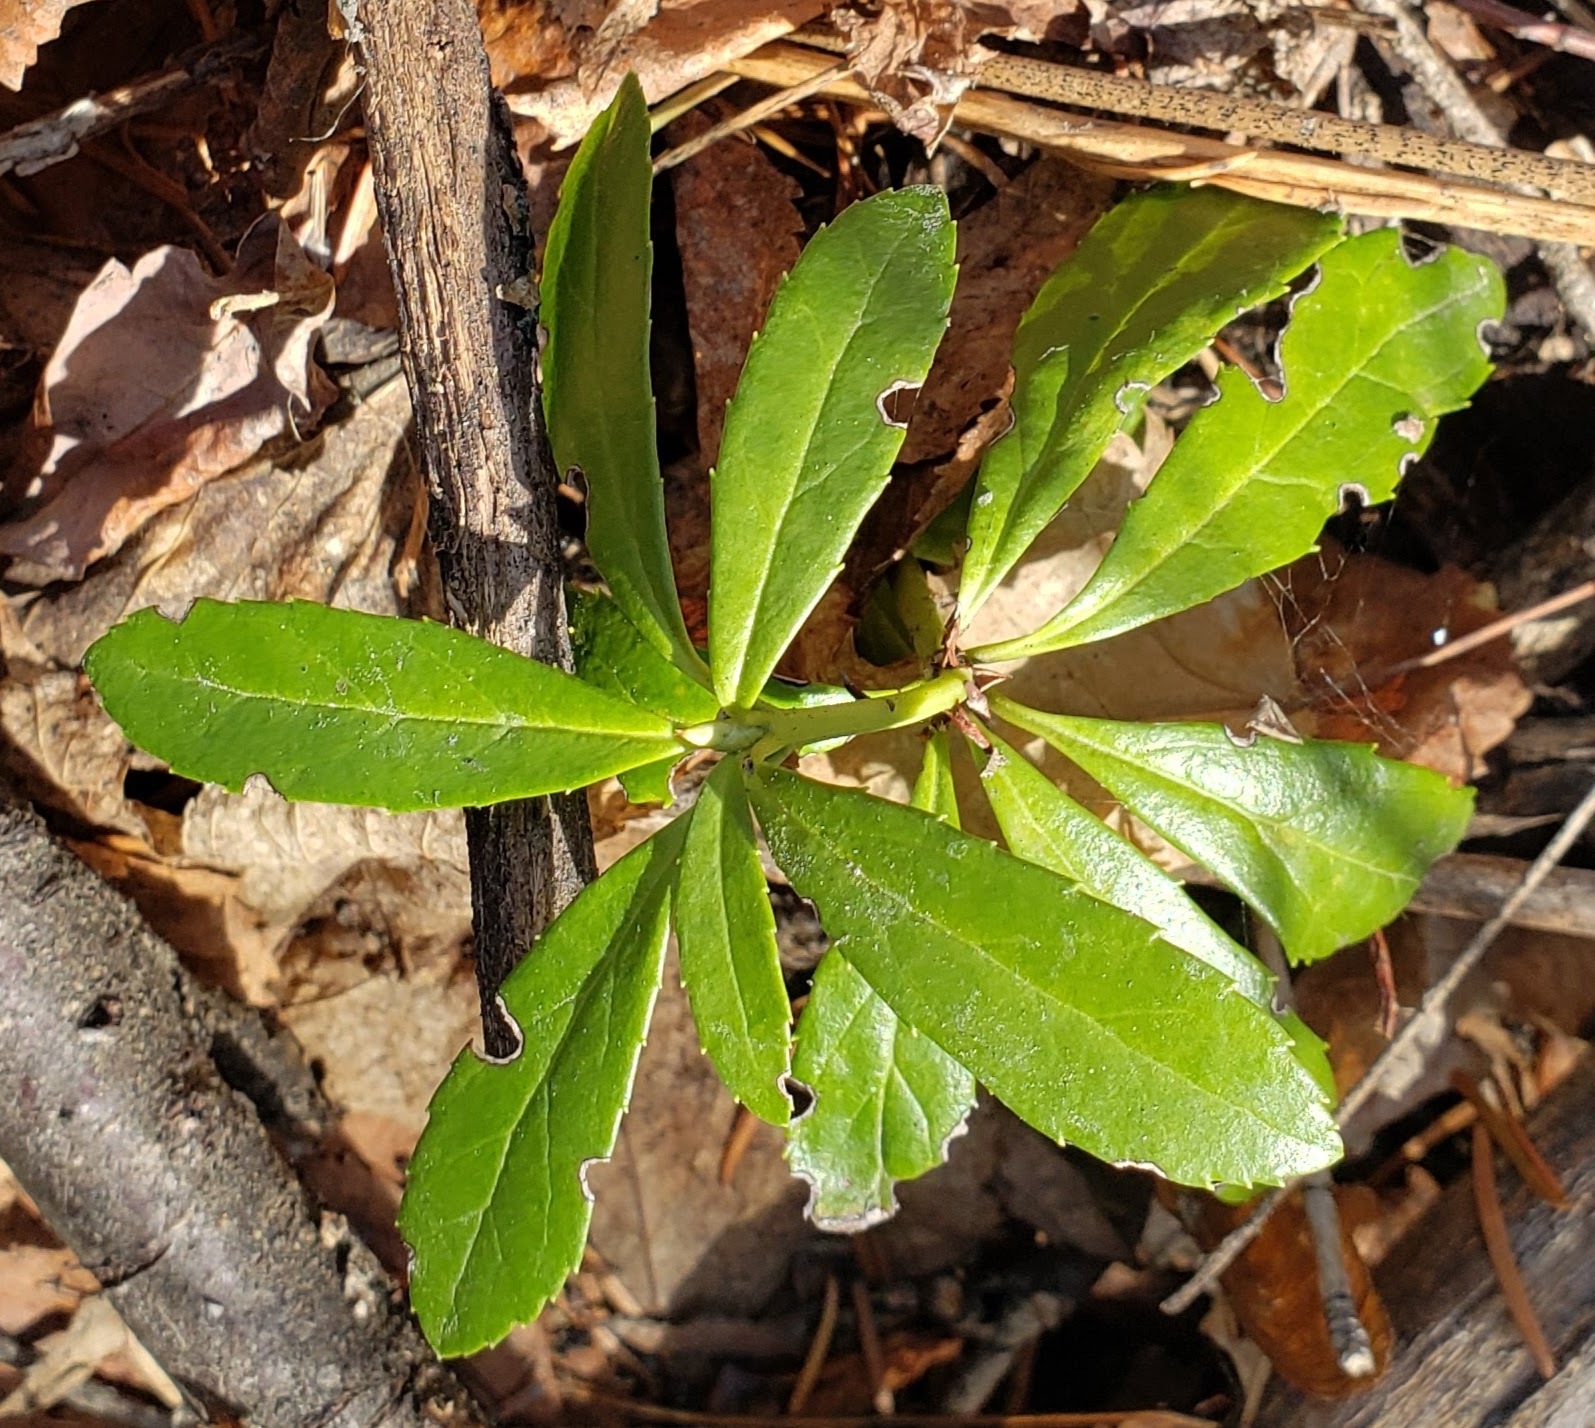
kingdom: Plantae
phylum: Tracheophyta
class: Magnoliopsida
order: Ericales
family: Ericaceae
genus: Chimaphila
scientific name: Chimaphila umbellata
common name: Pipsissewa
